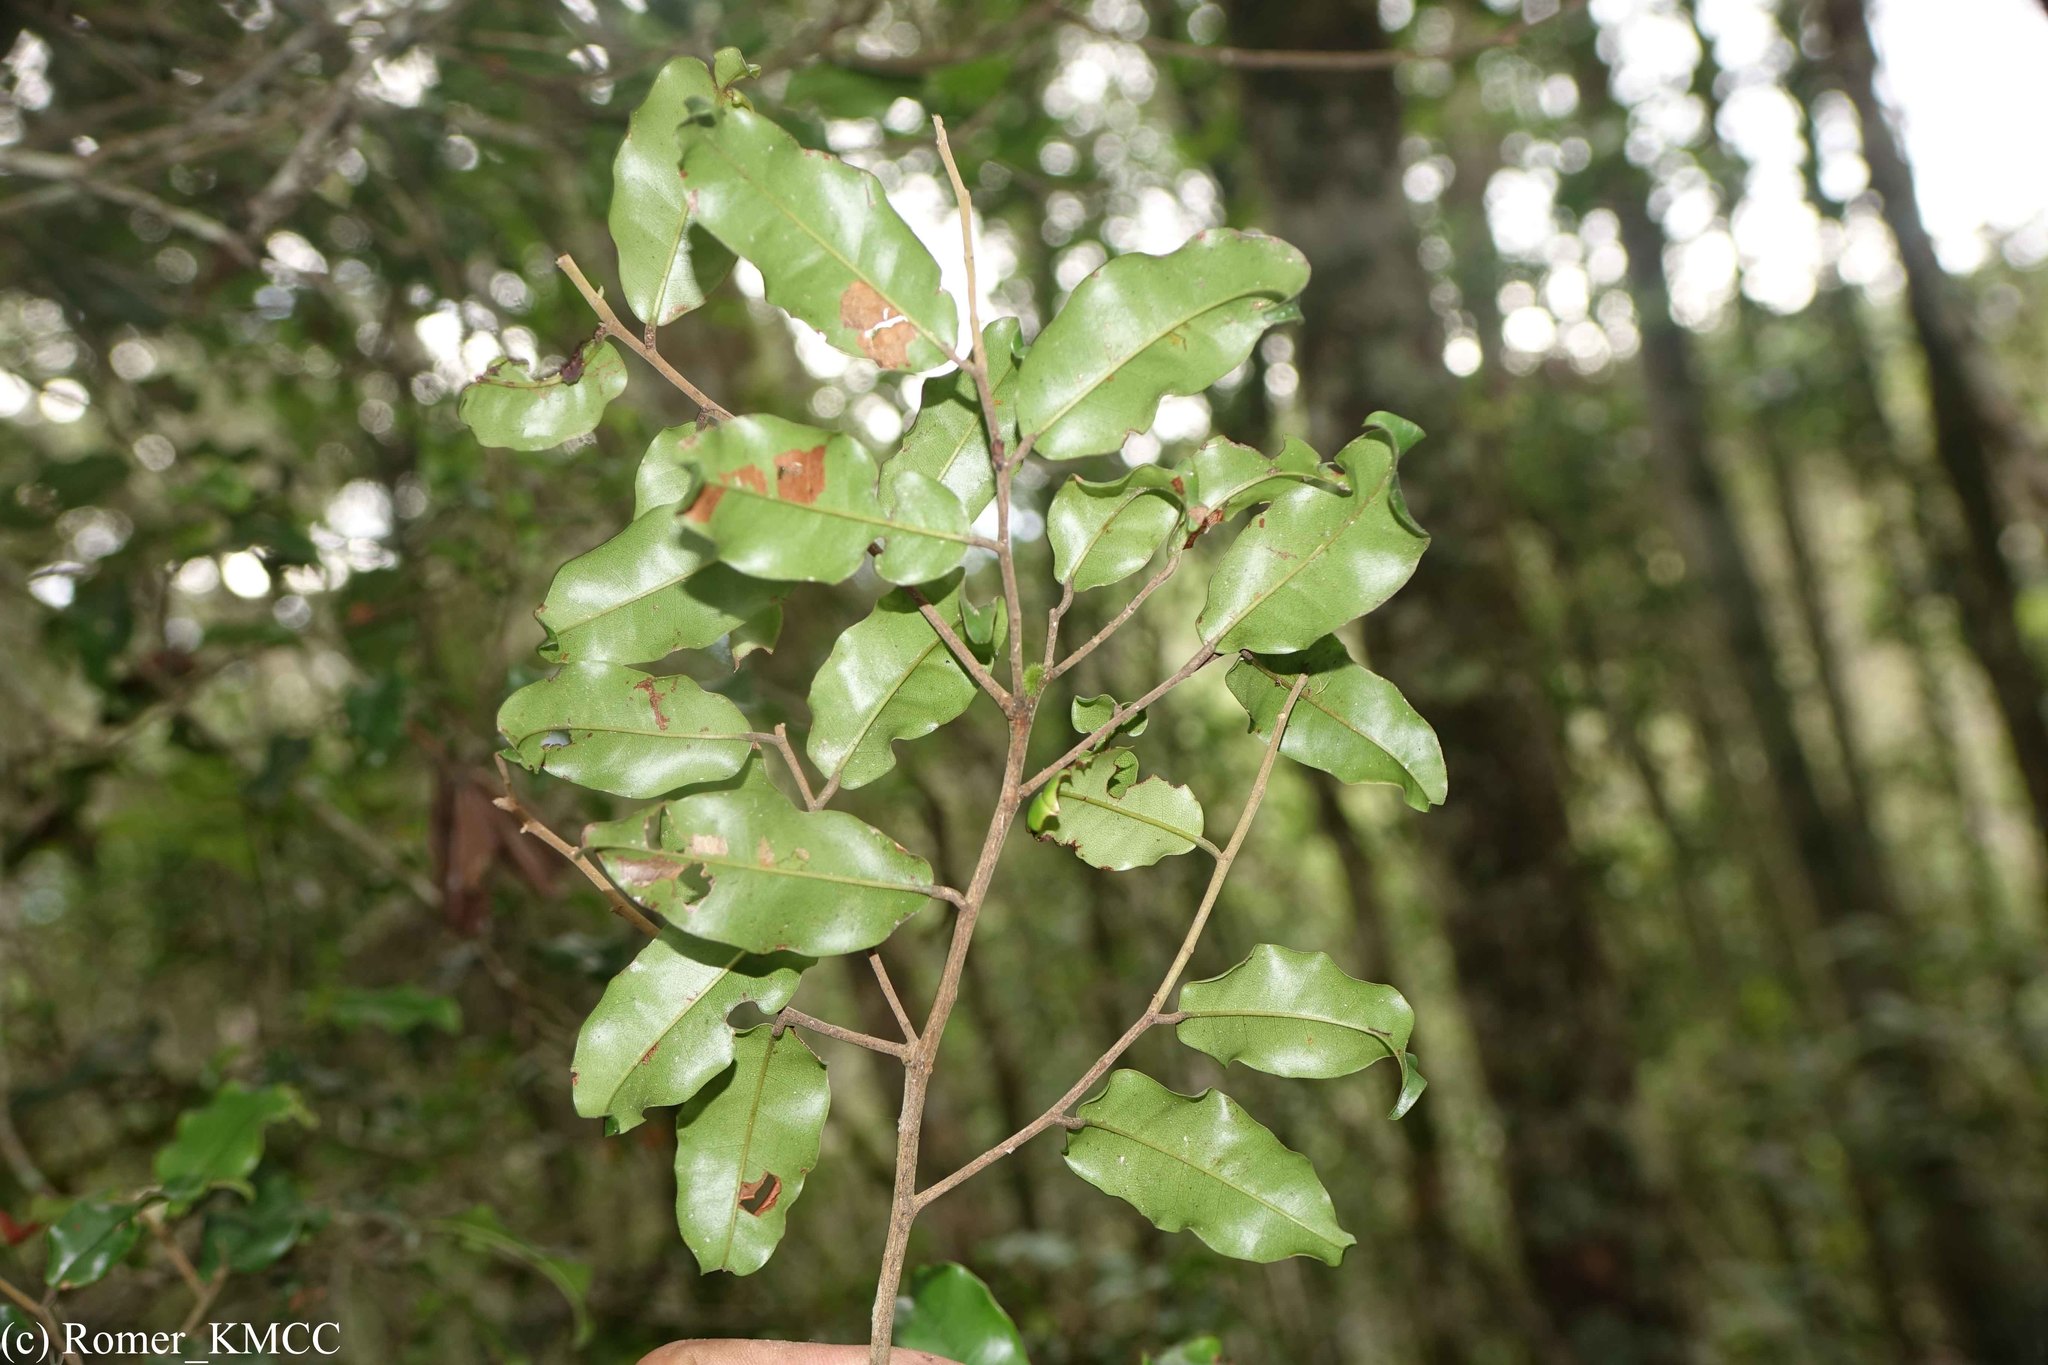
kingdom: Plantae
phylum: Tracheophyta
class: Magnoliopsida
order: Malvales
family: Sarcolaenaceae
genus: Rhodolaena
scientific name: Rhodolaena bakeriana
